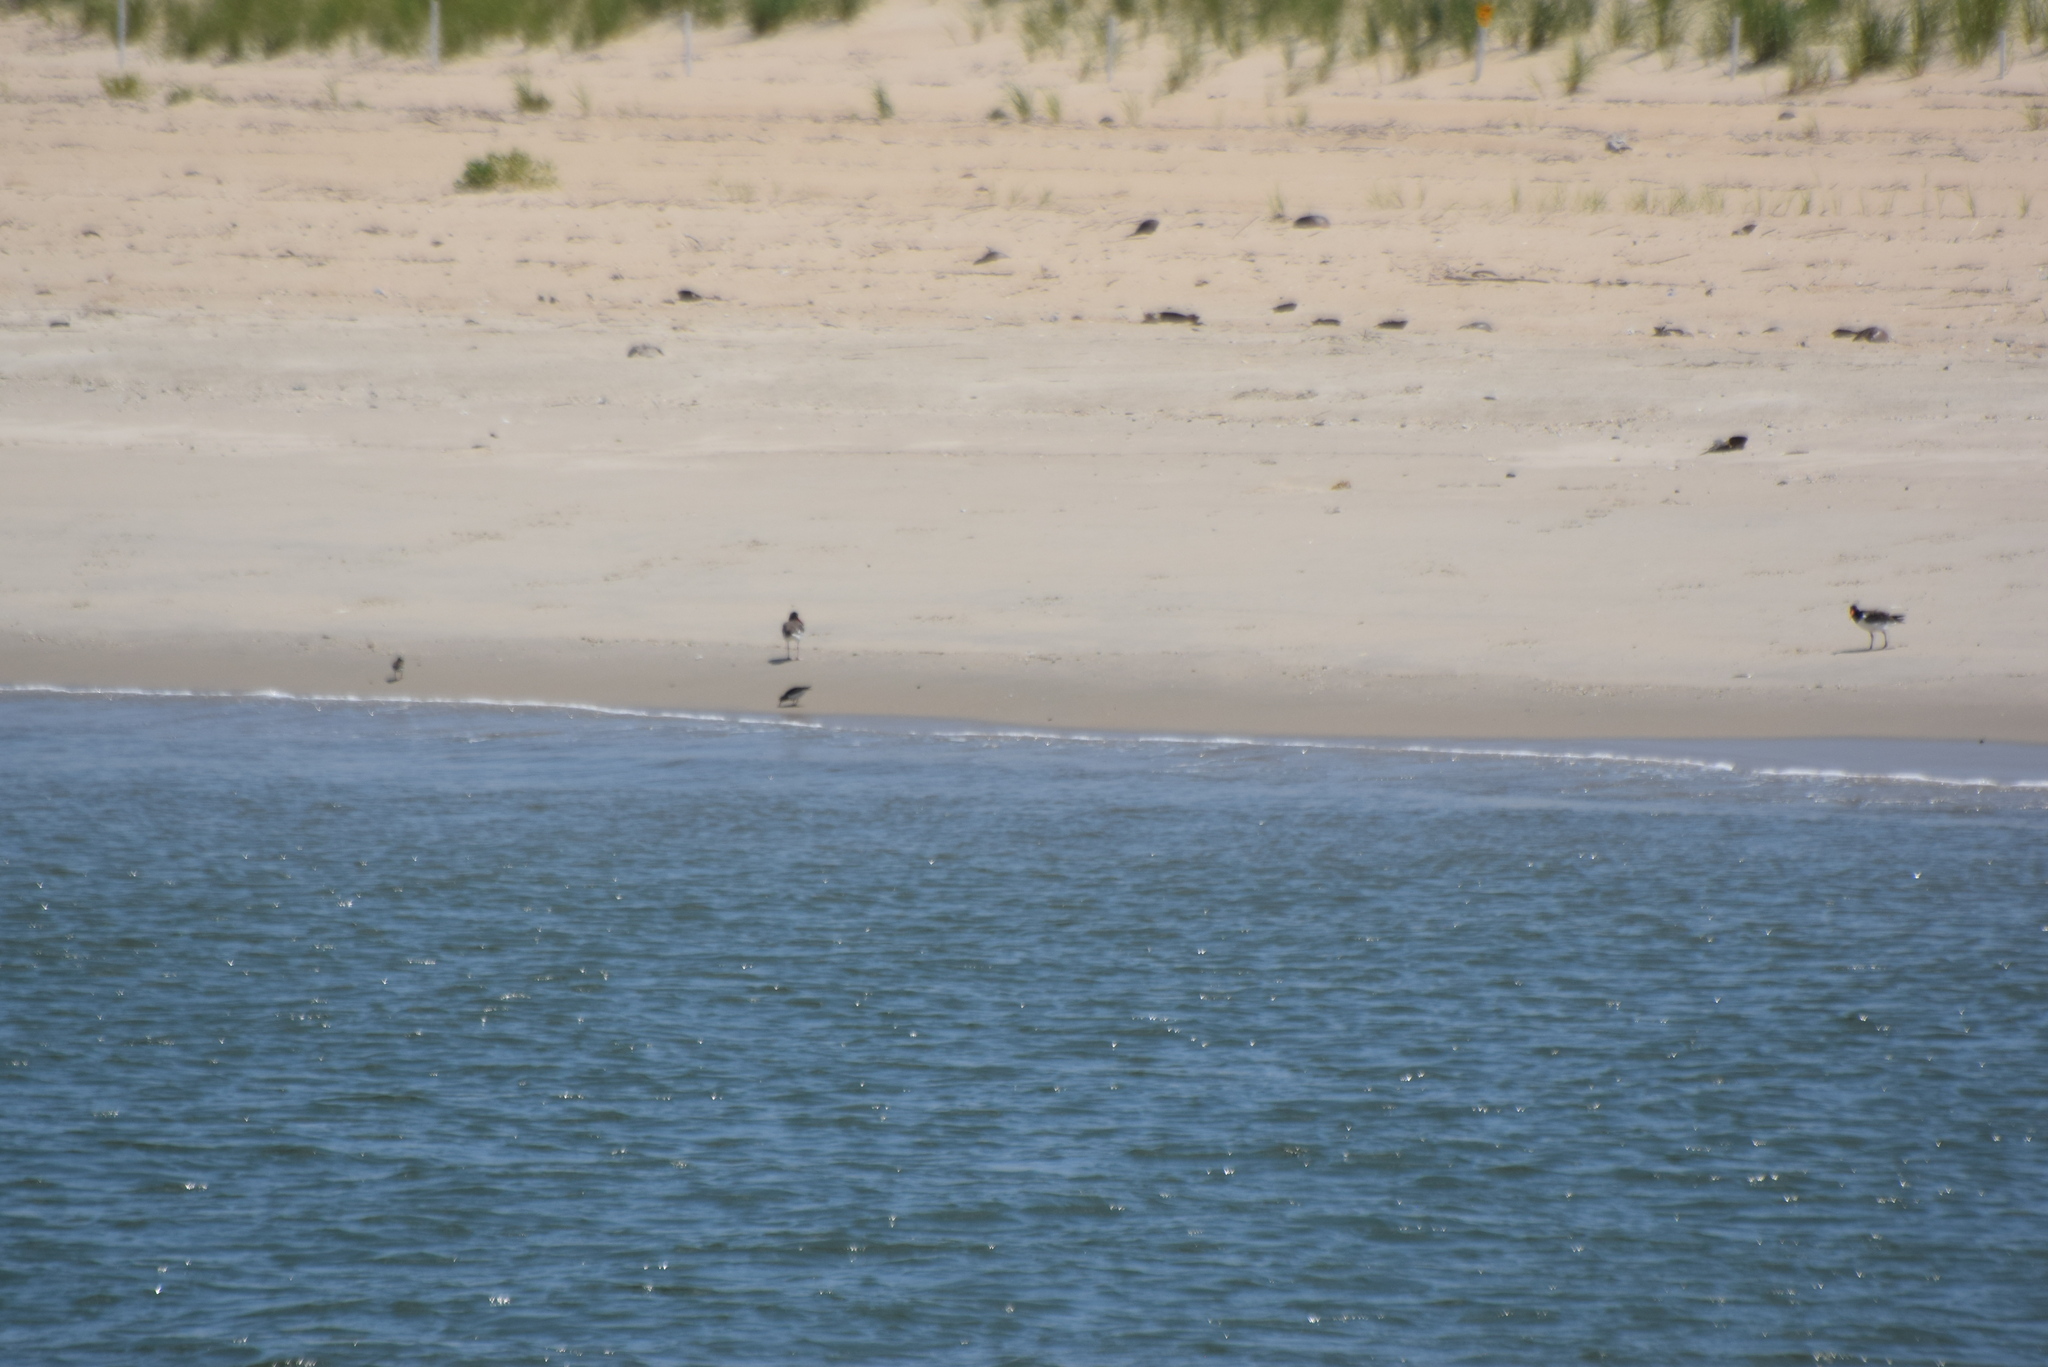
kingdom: Animalia
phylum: Chordata
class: Aves
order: Charadriiformes
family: Haematopodidae
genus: Haematopus
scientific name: Haematopus palliatus
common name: American oystercatcher
